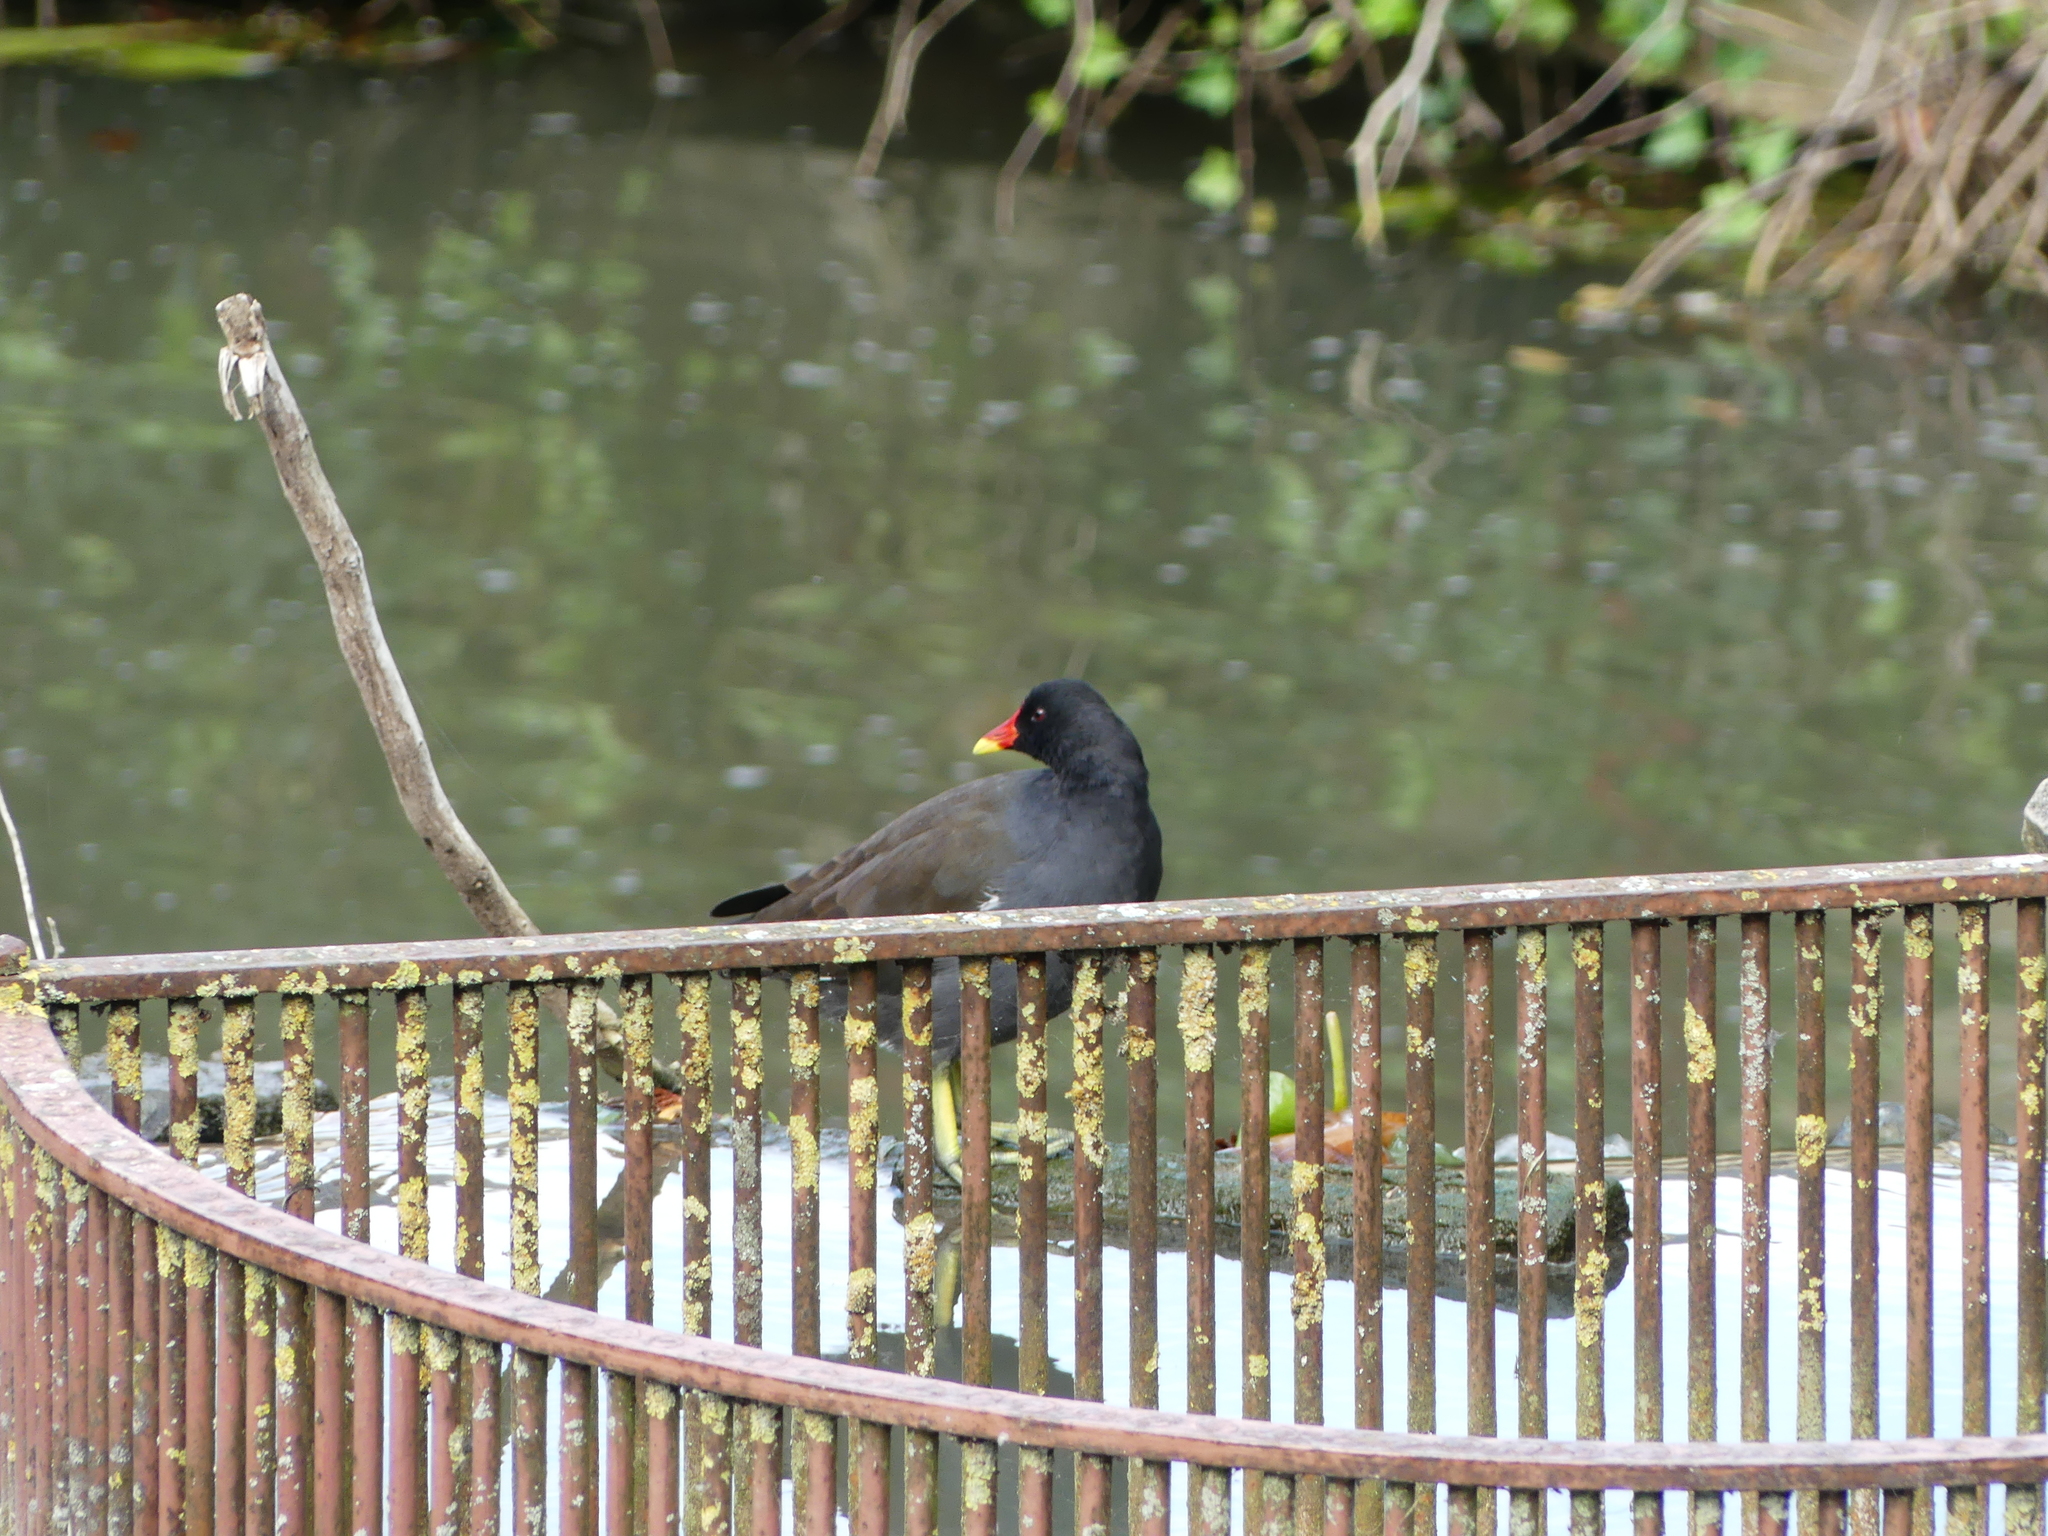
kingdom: Animalia
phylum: Chordata
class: Aves
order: Gruiformes
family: Rallidae
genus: Gallinula
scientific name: Gallinula chloropus
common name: Common moorhen
